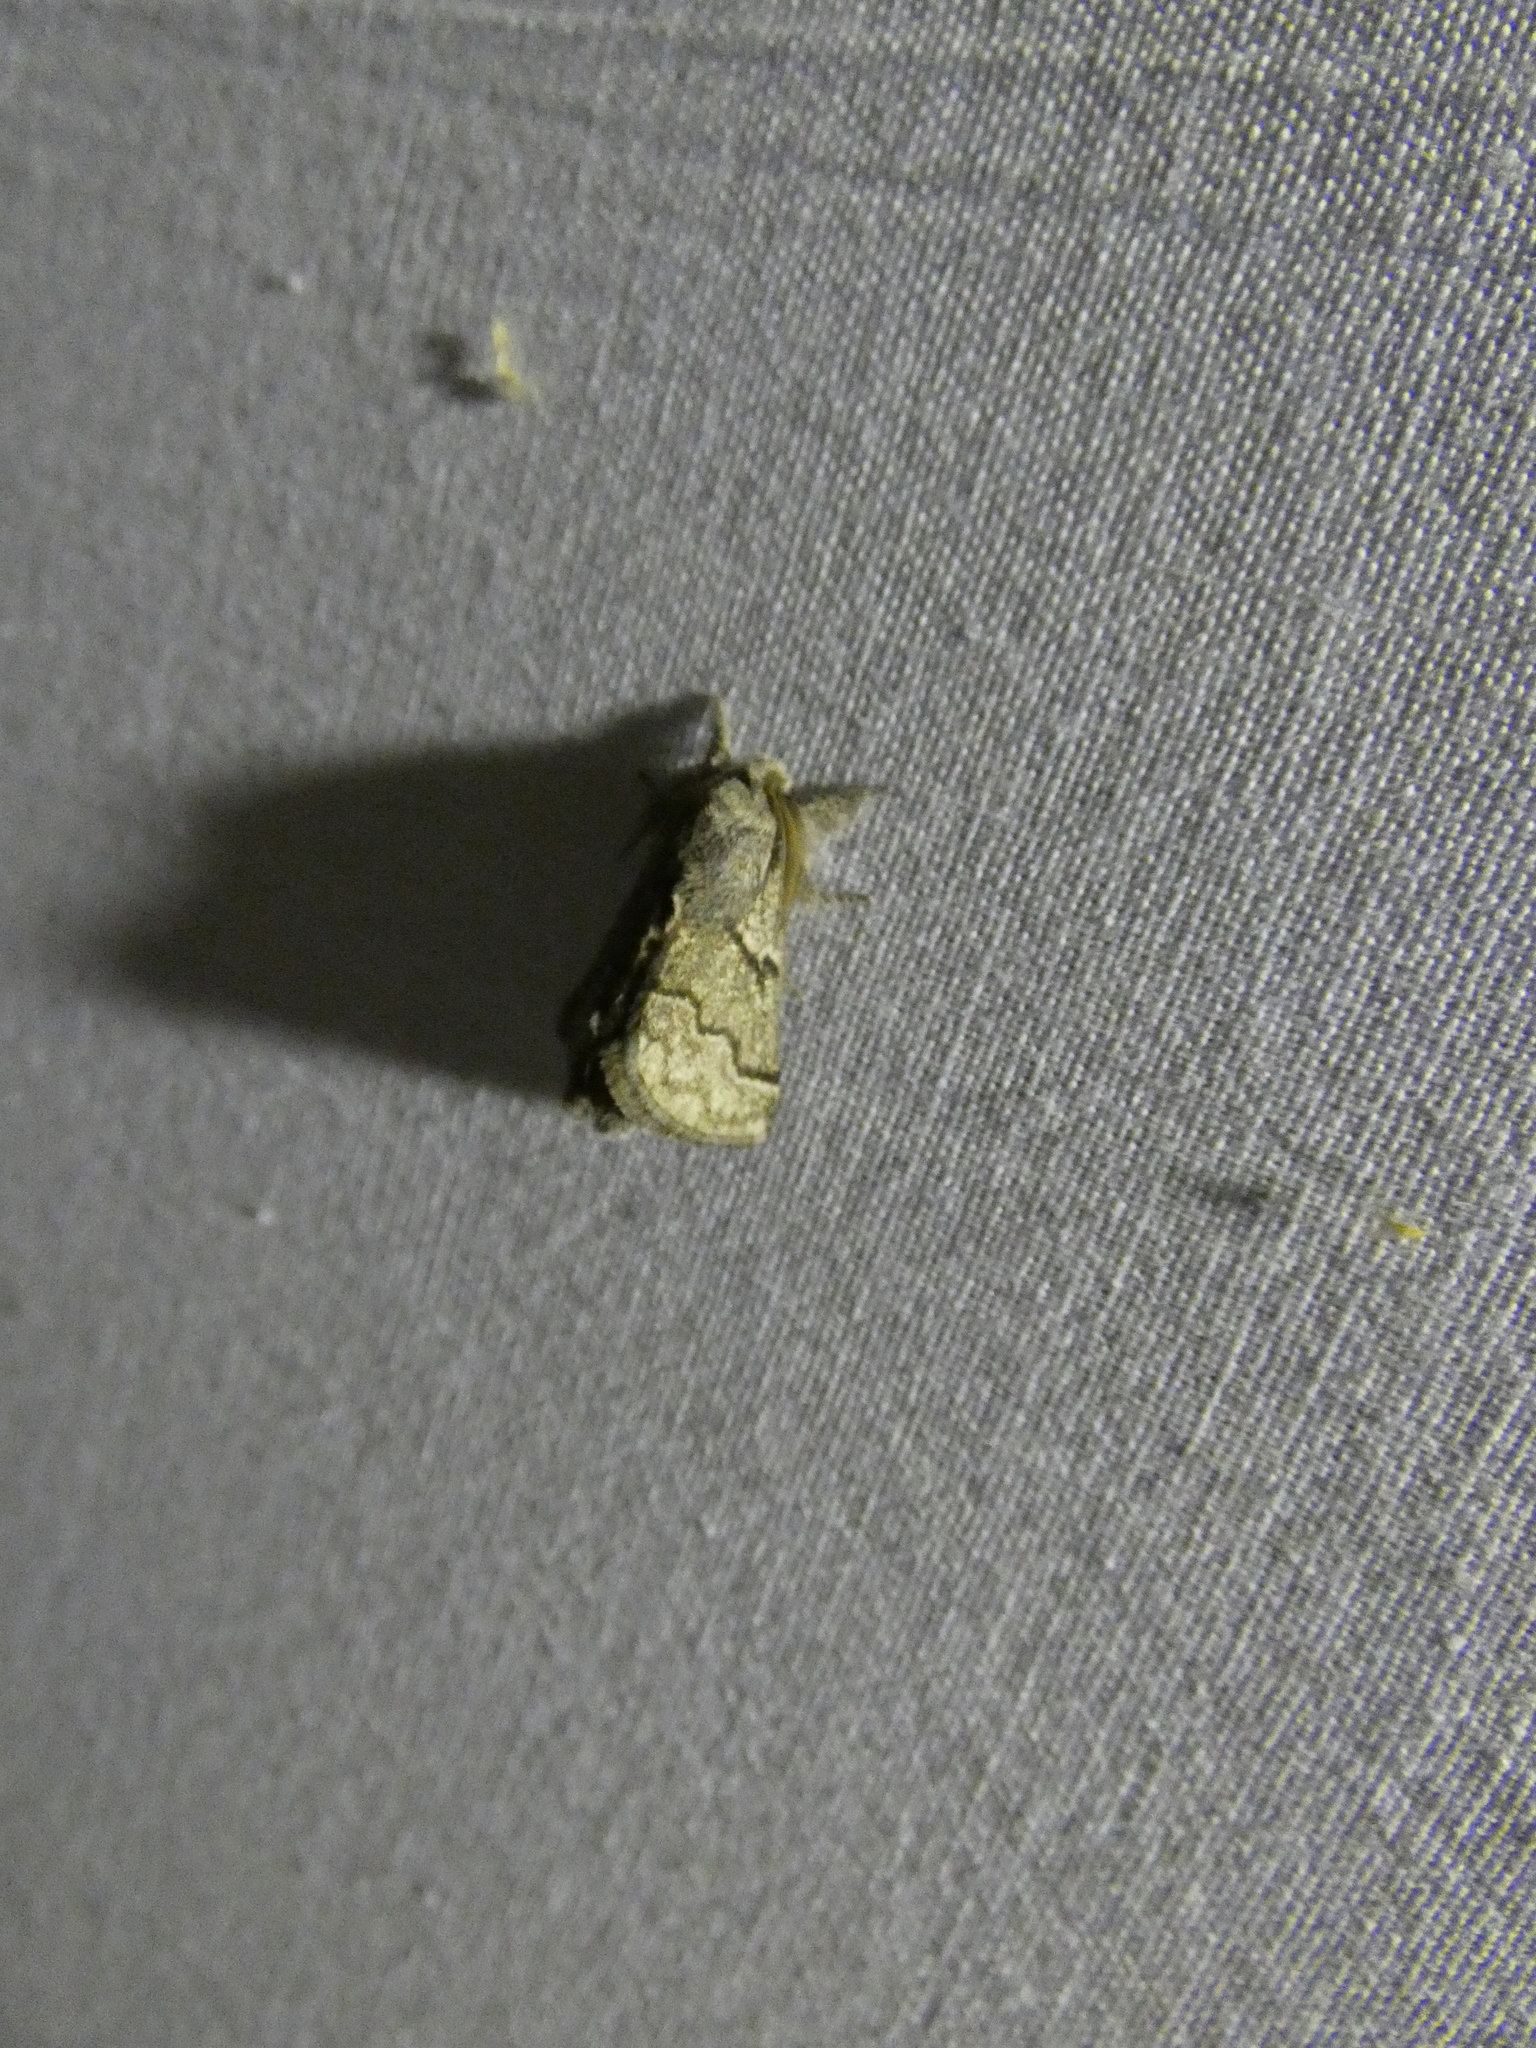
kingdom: Animalia
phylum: Arthropoda
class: Insecta
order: Lepidoptera
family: Lasiocampidae
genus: Trichiura
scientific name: Trichiura crataegi
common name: Pale eggar
